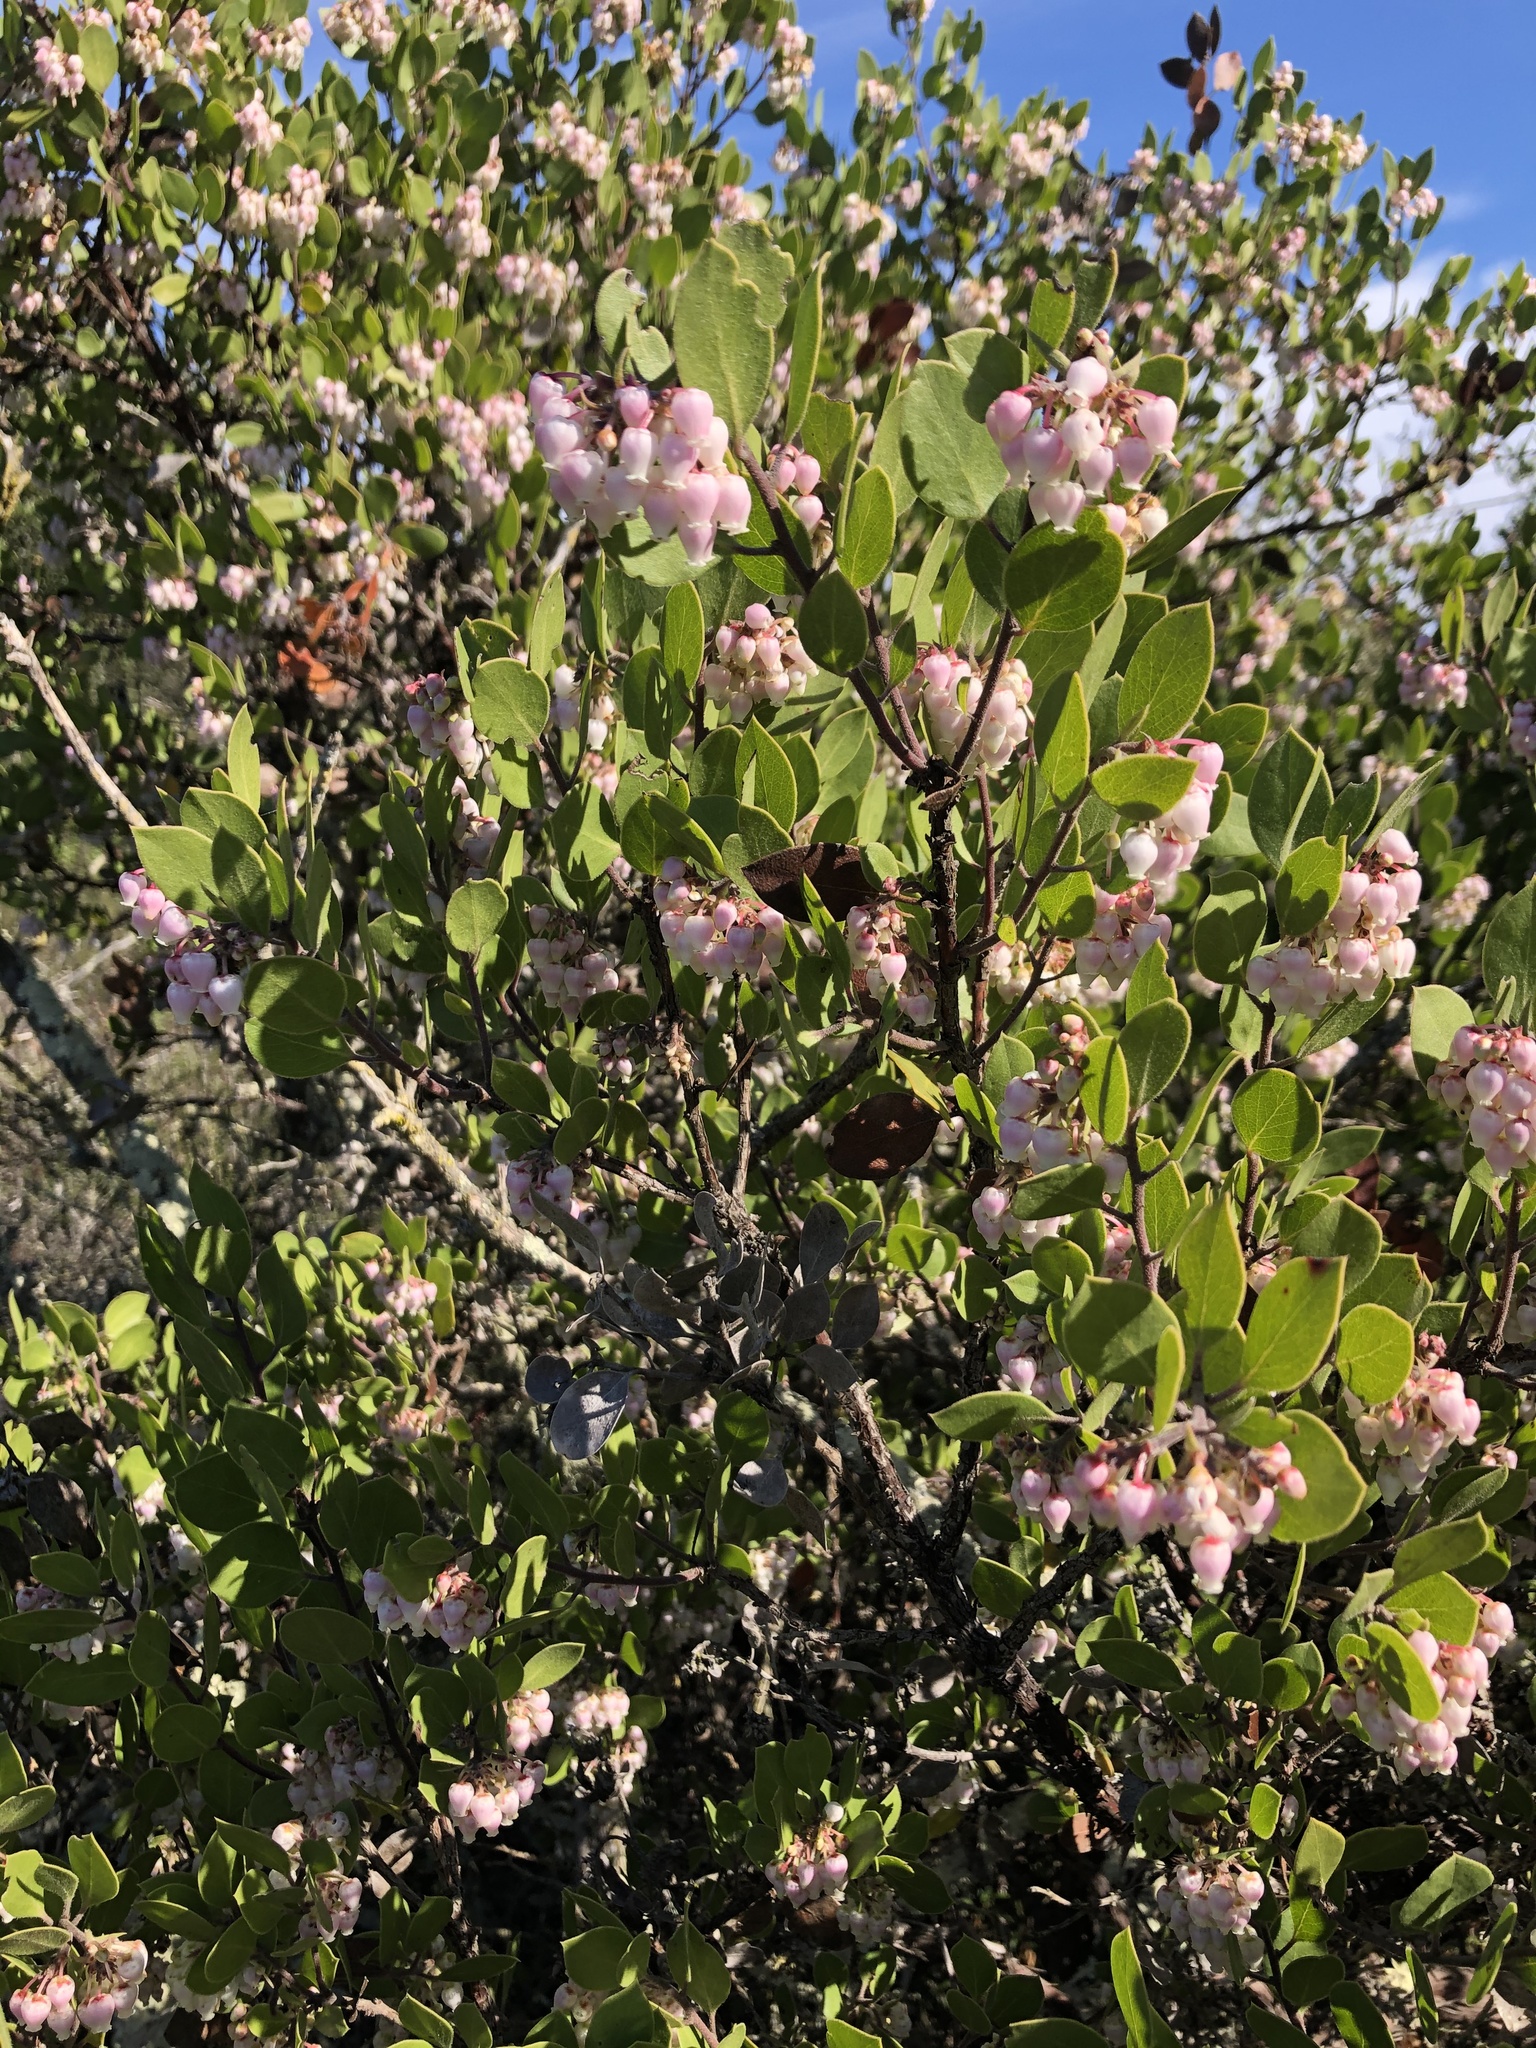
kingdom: Plantae
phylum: Tracheophyta
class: Magnoliopsida
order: Ericales
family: Ericaceae
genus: Arctostaphylos
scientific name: Arctostaphylos rudis
